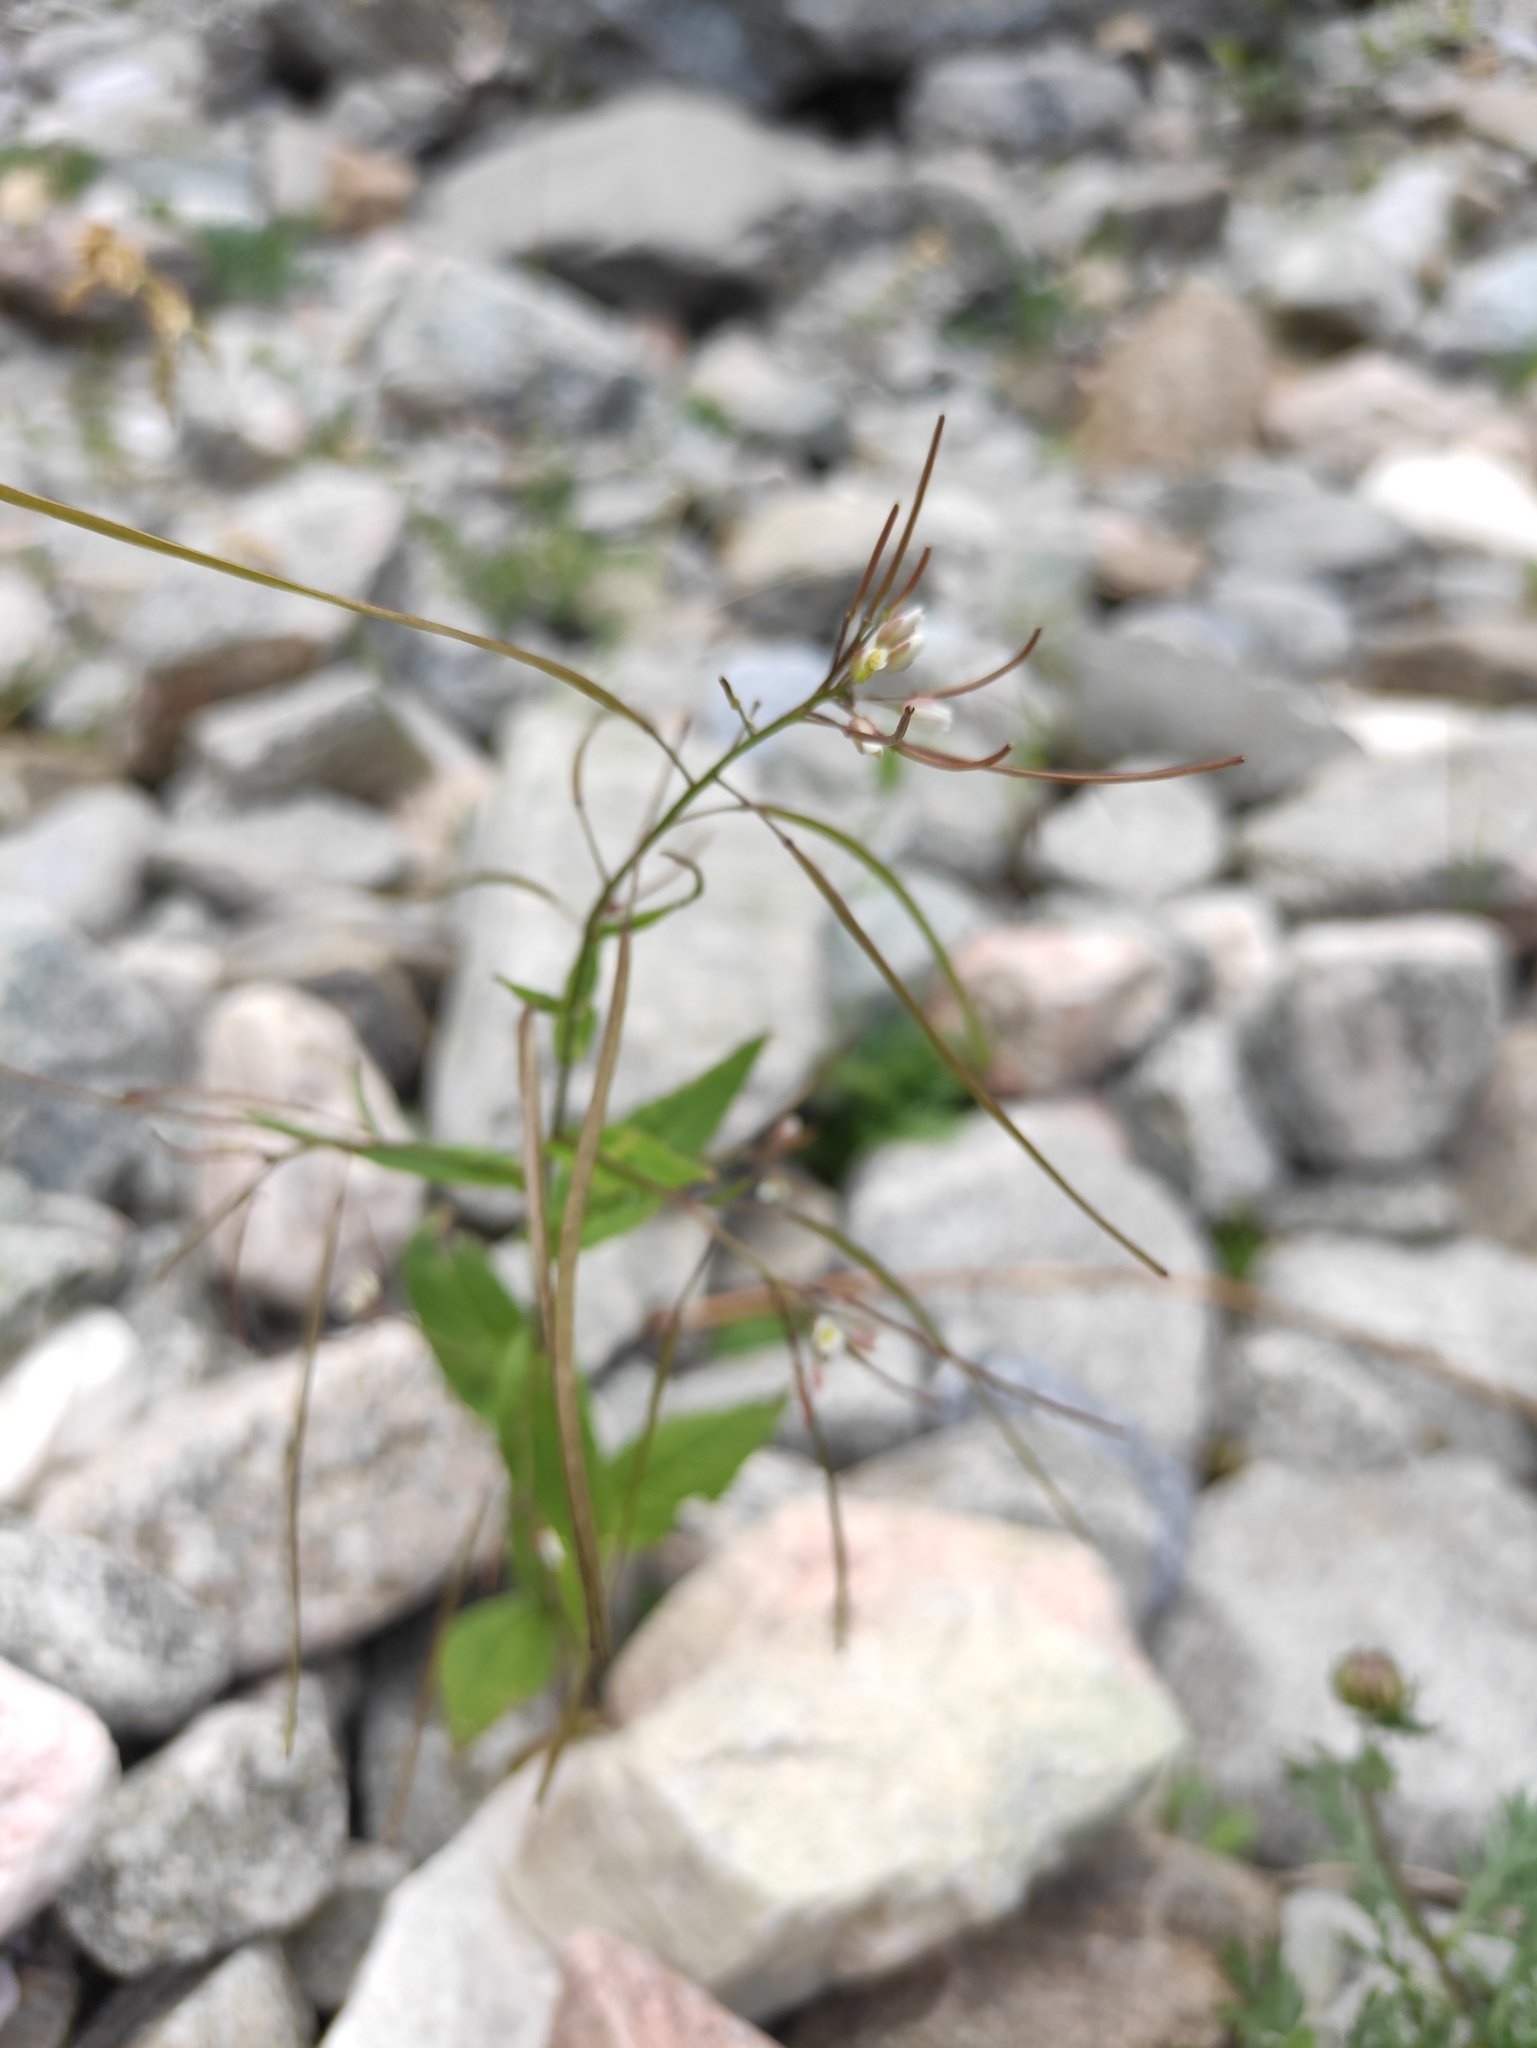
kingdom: Plantae
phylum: Tracheophyta
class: Magnoliopsida
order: Brassicales
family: Brassicaceae
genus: Catolobus
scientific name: Catolobus pendulus
